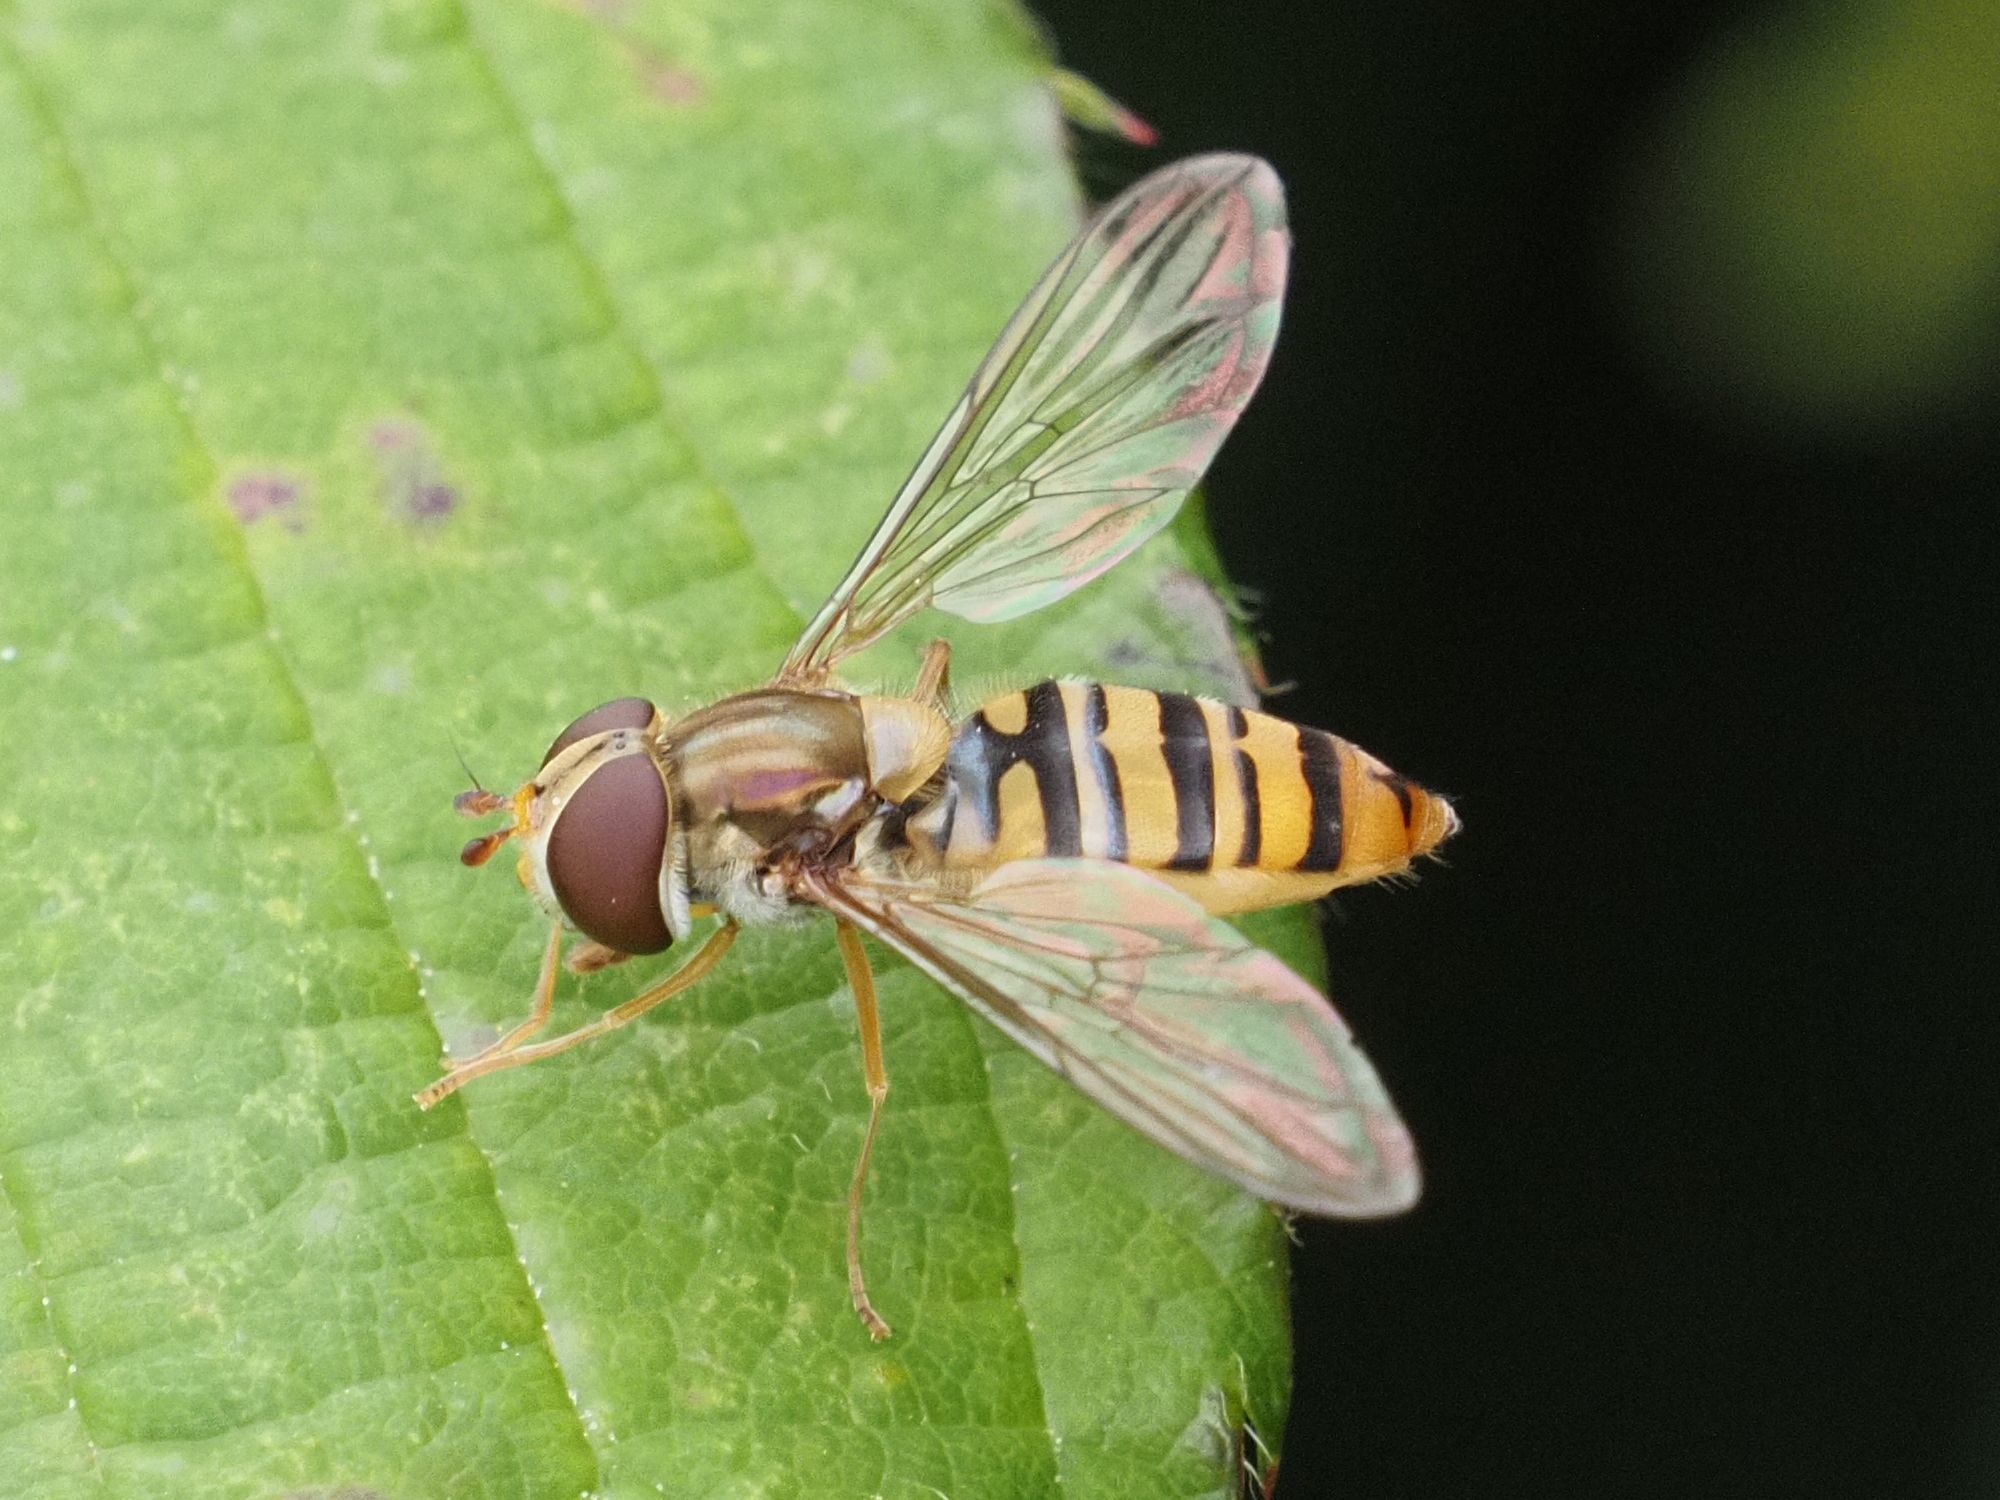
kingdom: Animalia
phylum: Arthropoda
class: Insecta
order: Diptera
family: Syrphidae
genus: Episyrphus
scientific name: Episyrphus balteatus
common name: Marmalade hoverfly
